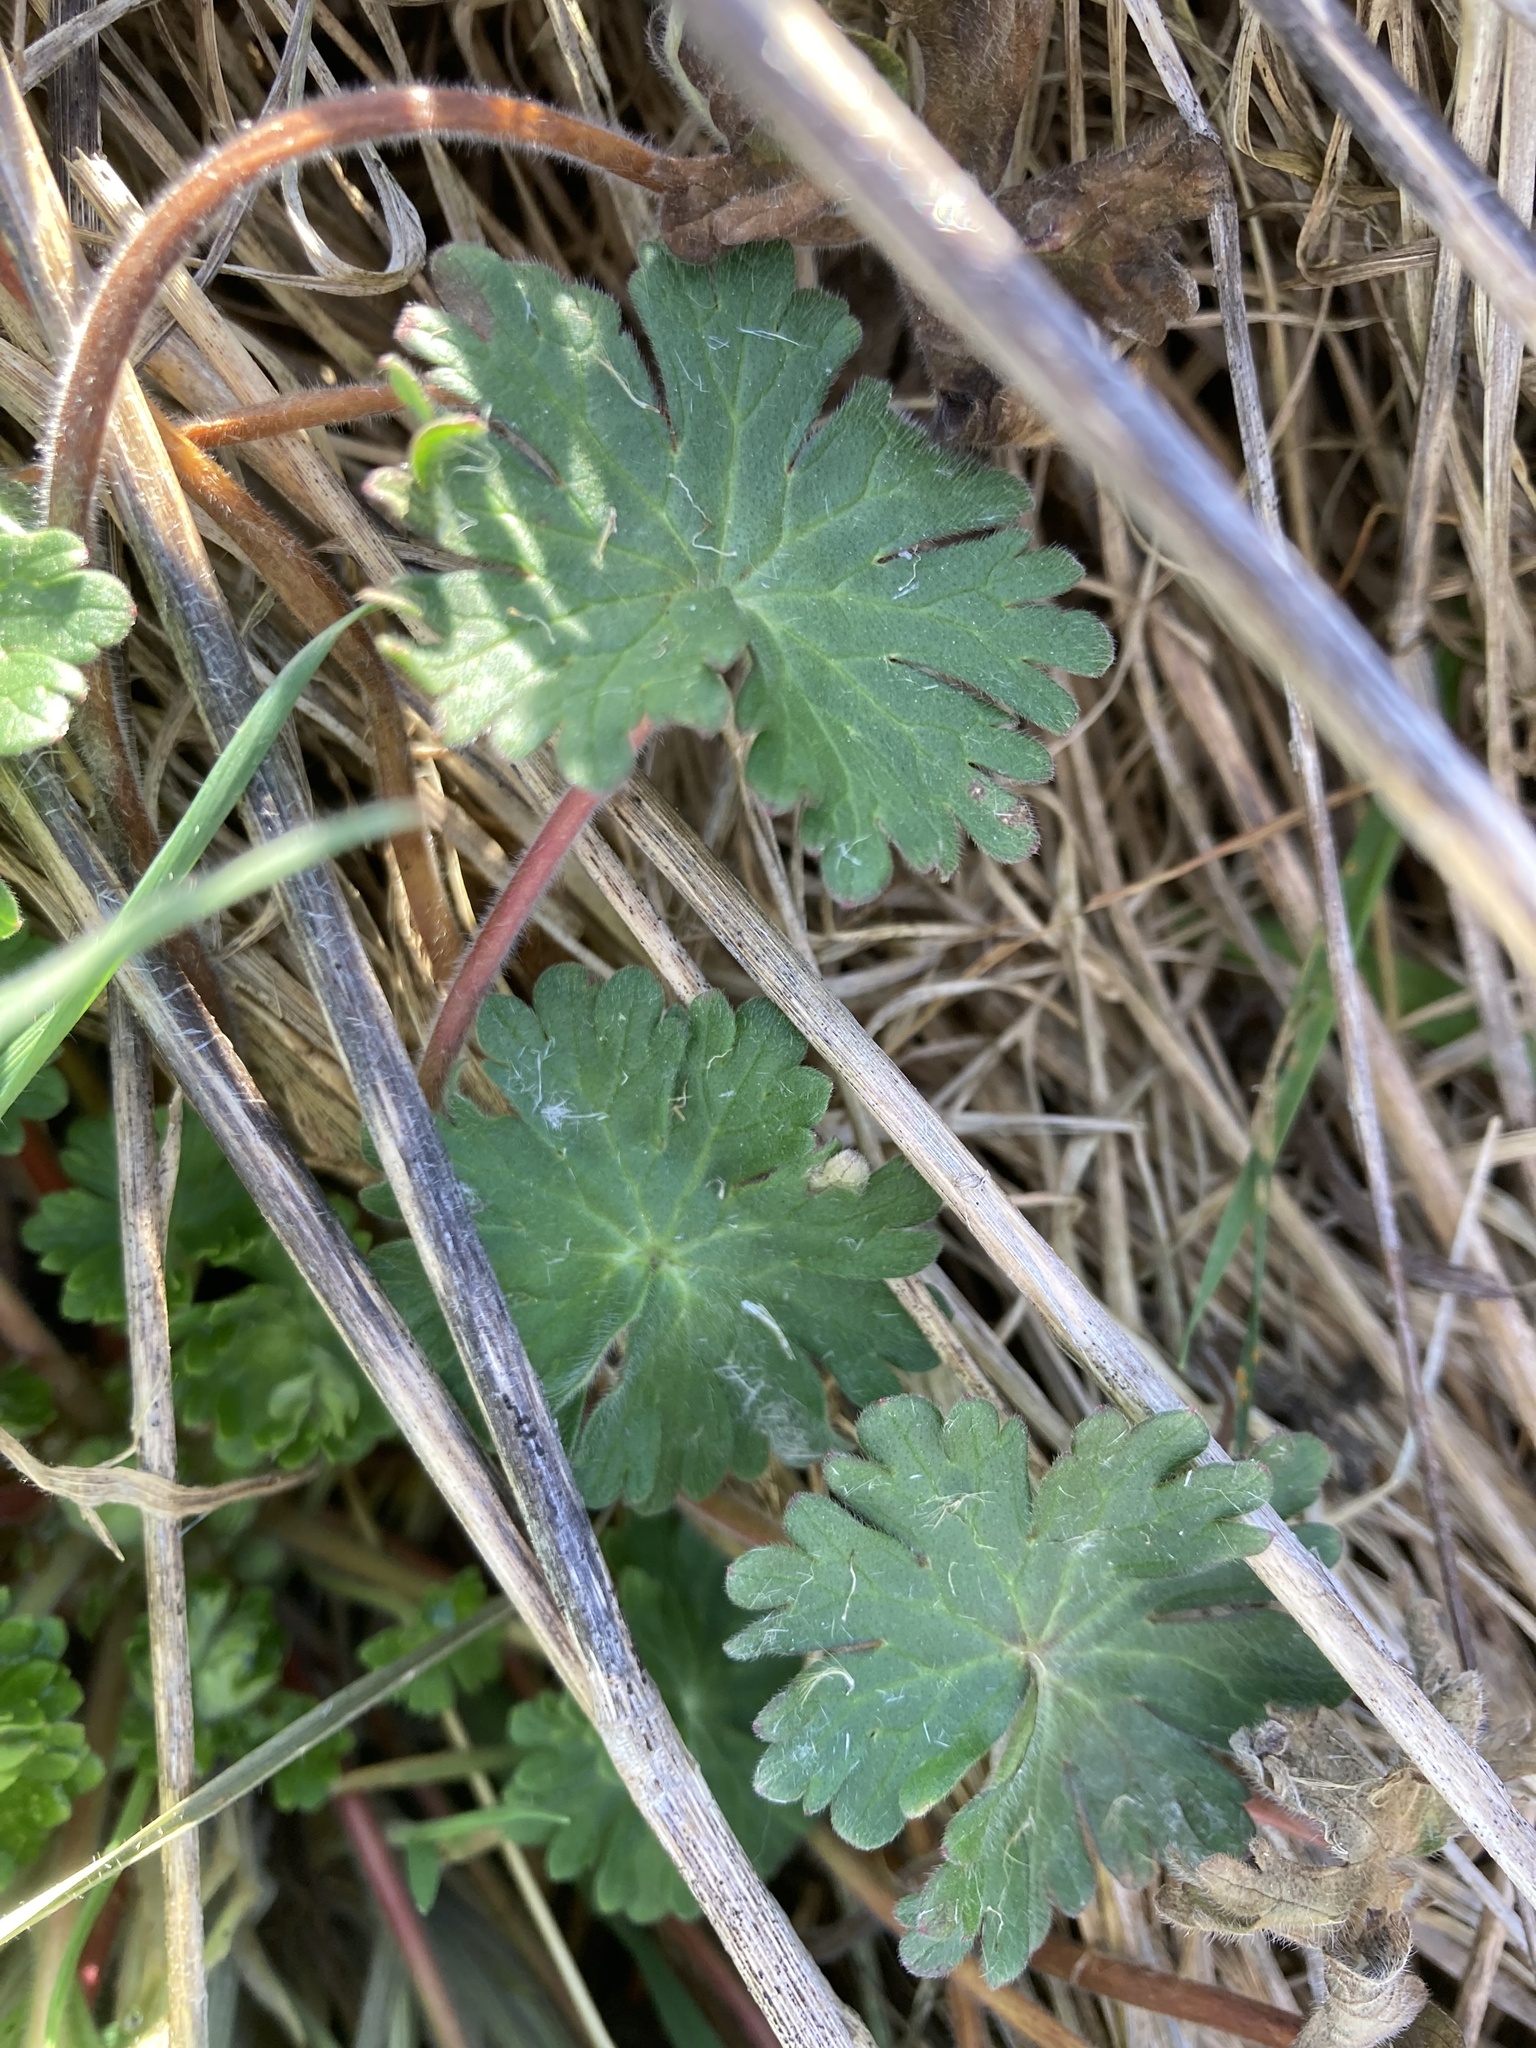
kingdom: Plantae
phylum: Tracheophyta
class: Magnoliopsida
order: Geraniales
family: Geraniaceae
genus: Geranium
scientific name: Geranium molle
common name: Dove's-foot crane's-bill
